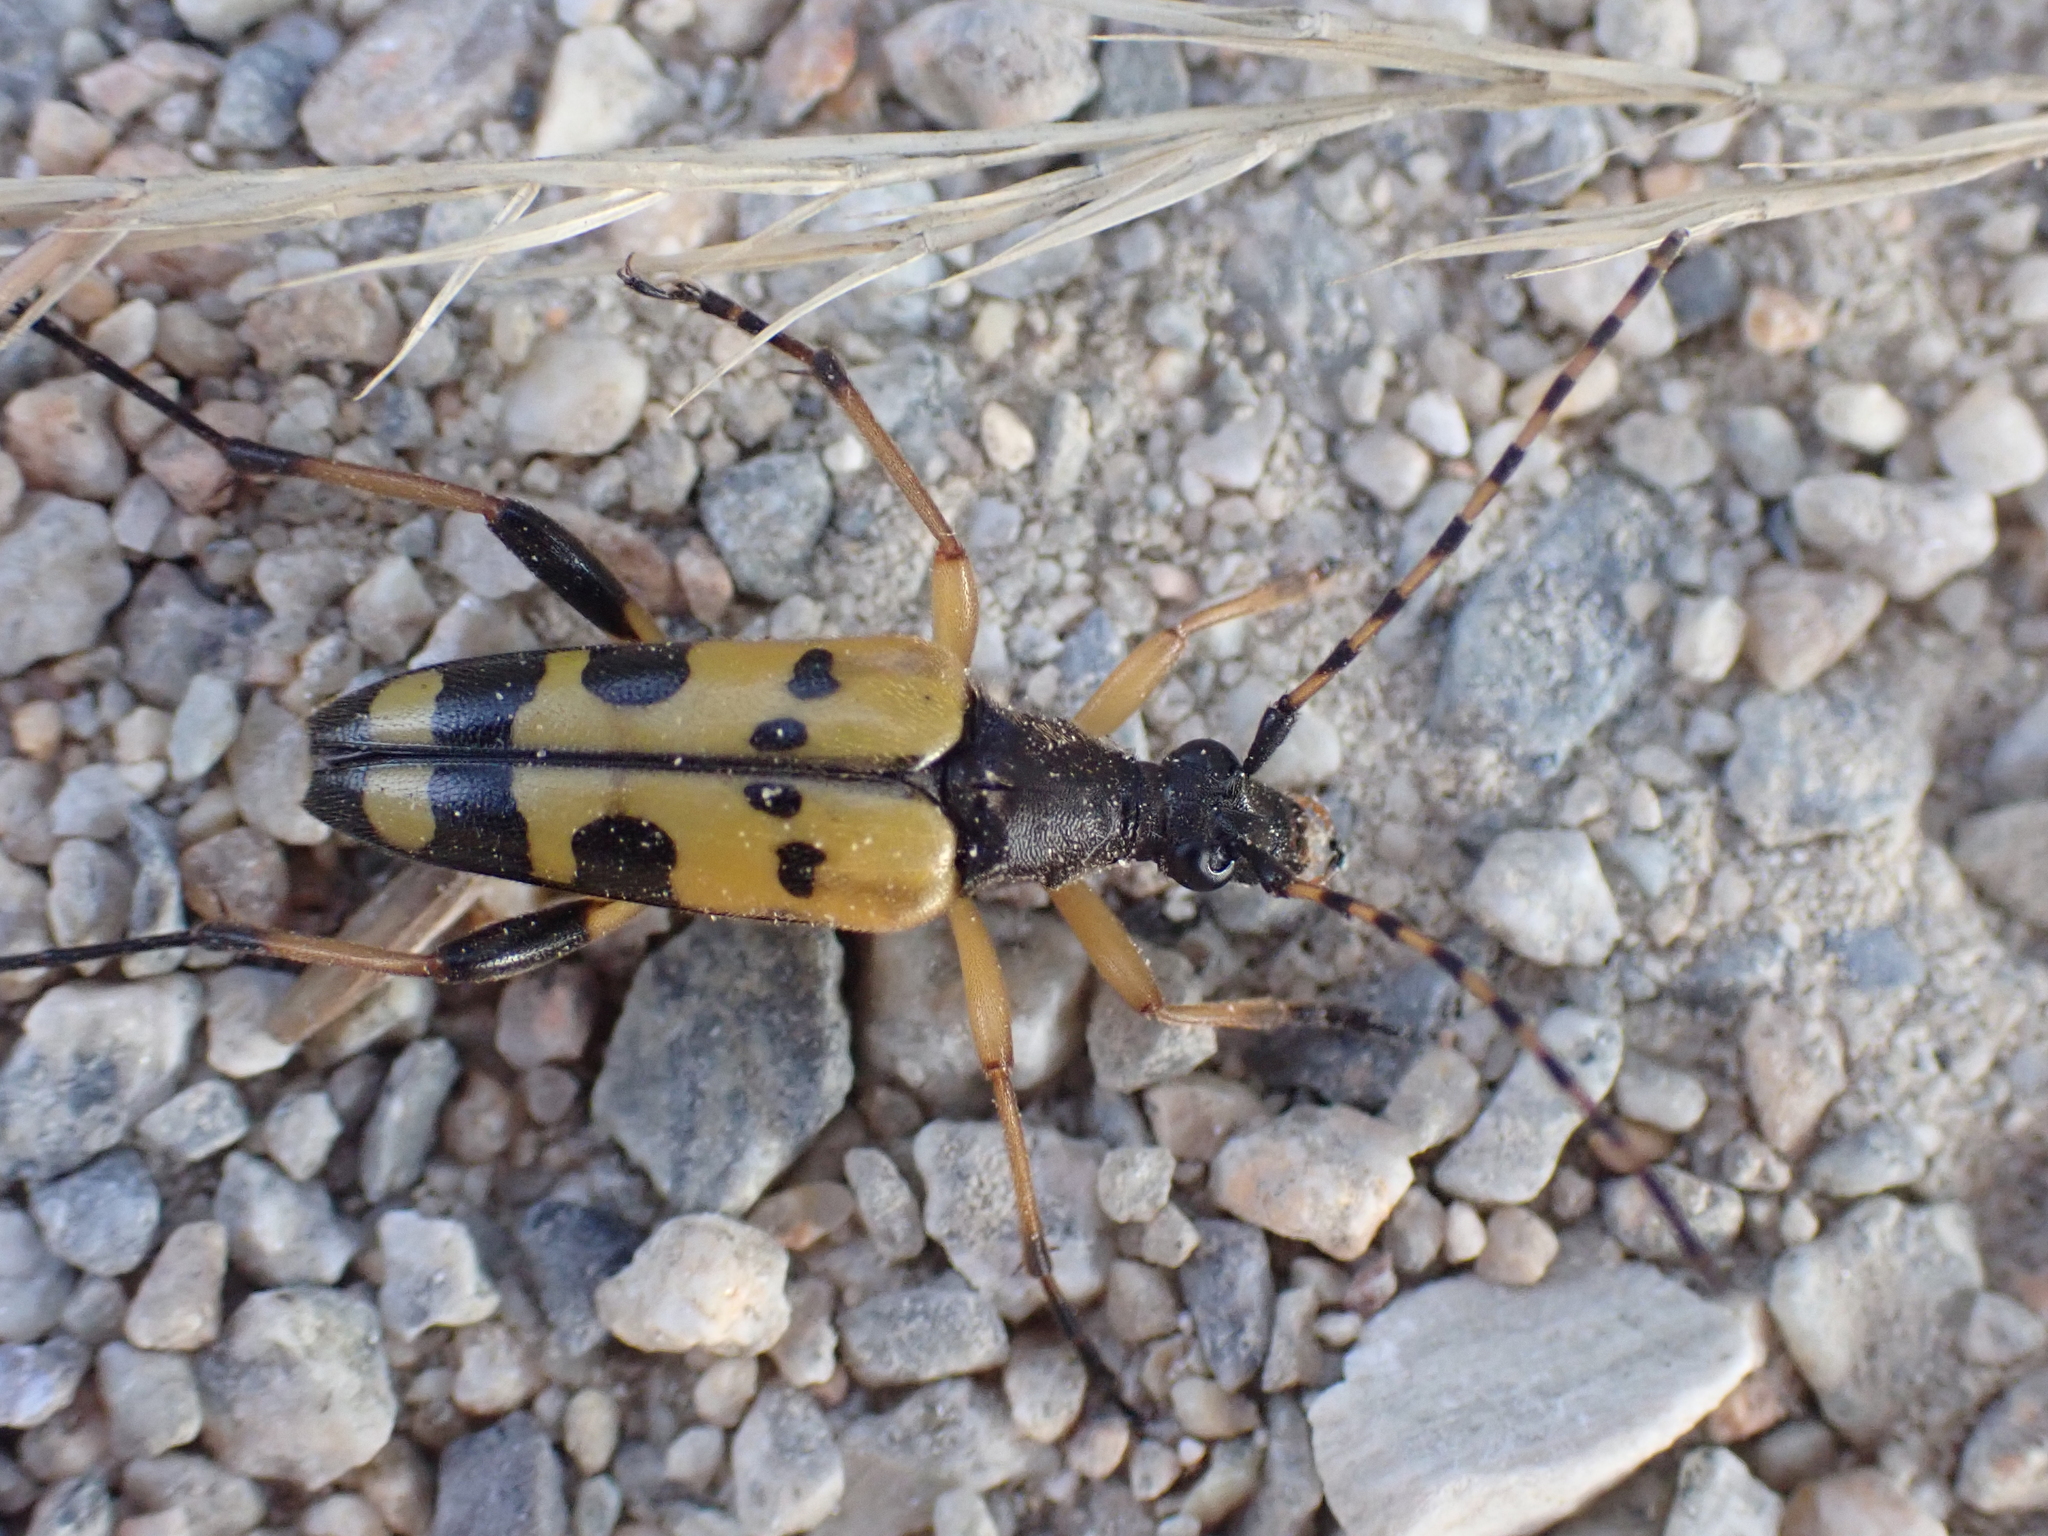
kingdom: Animalia
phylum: Arthropoda
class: Insecta
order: Coleoptera
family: Cerambycidae
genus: Rutpela
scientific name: Rutpela maculata
